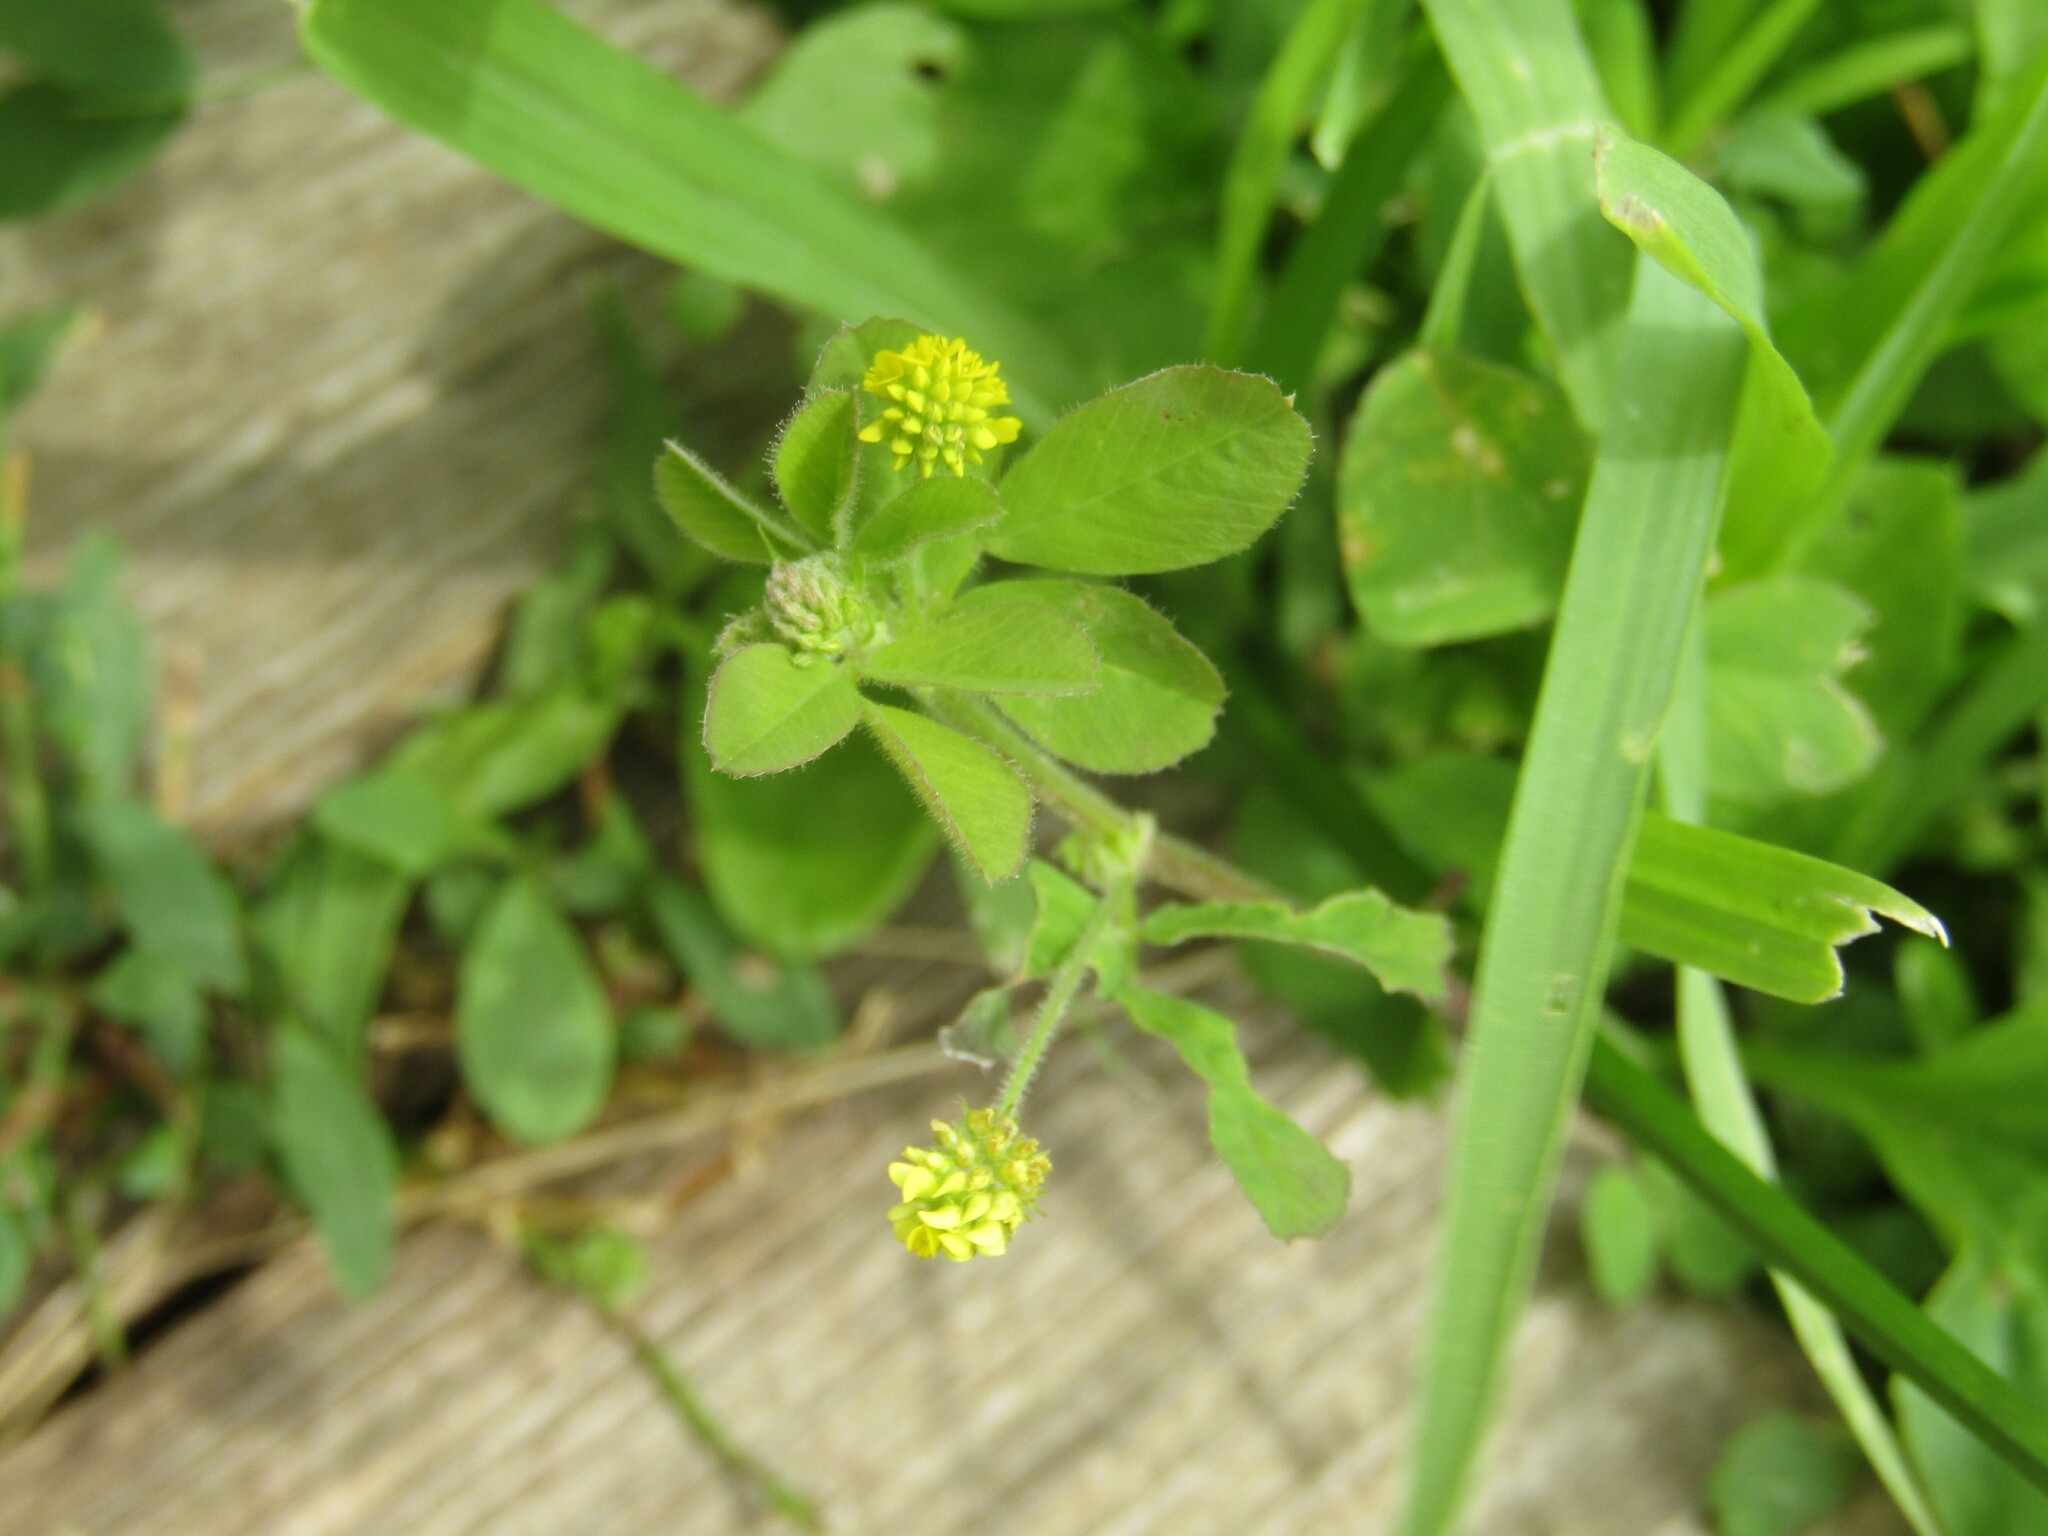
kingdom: Plantae
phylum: Tracheophyta
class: Magnoliopsida
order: Fabales
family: Fabaceae
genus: Medicago
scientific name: Medicago lupulina
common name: Black medick
